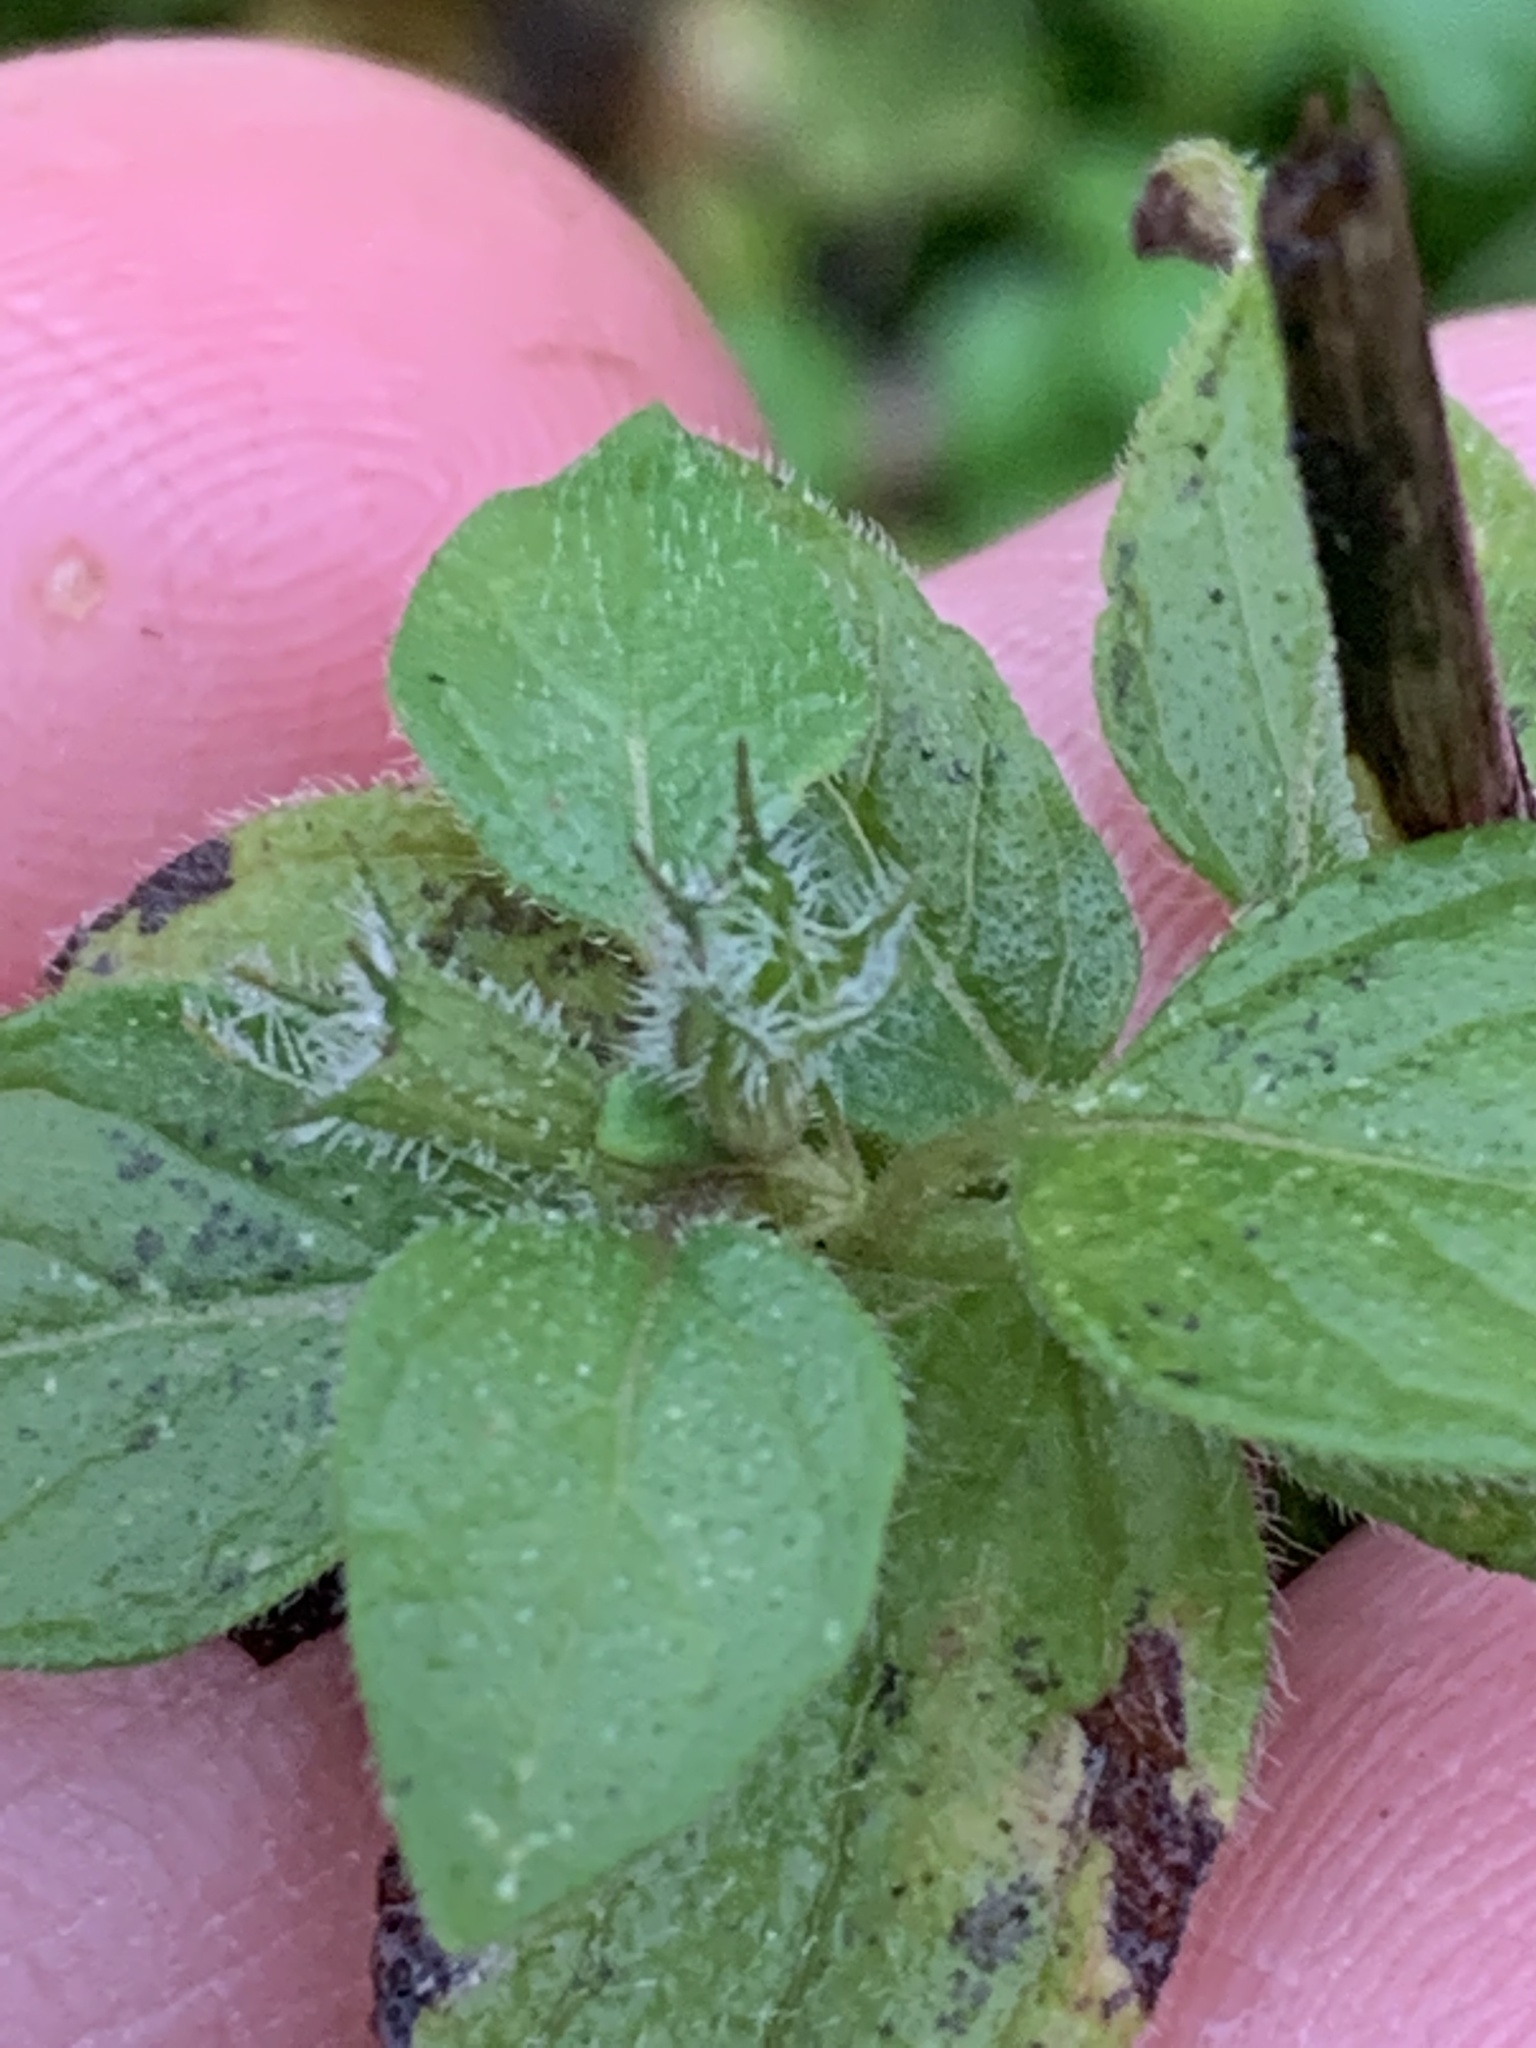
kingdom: Plantae
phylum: Tracheophyta
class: Magnoliopsida
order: Lamiales
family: Lamiaceae
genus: Clinopodium
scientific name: Clinopodium vulgare
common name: Wild basil
